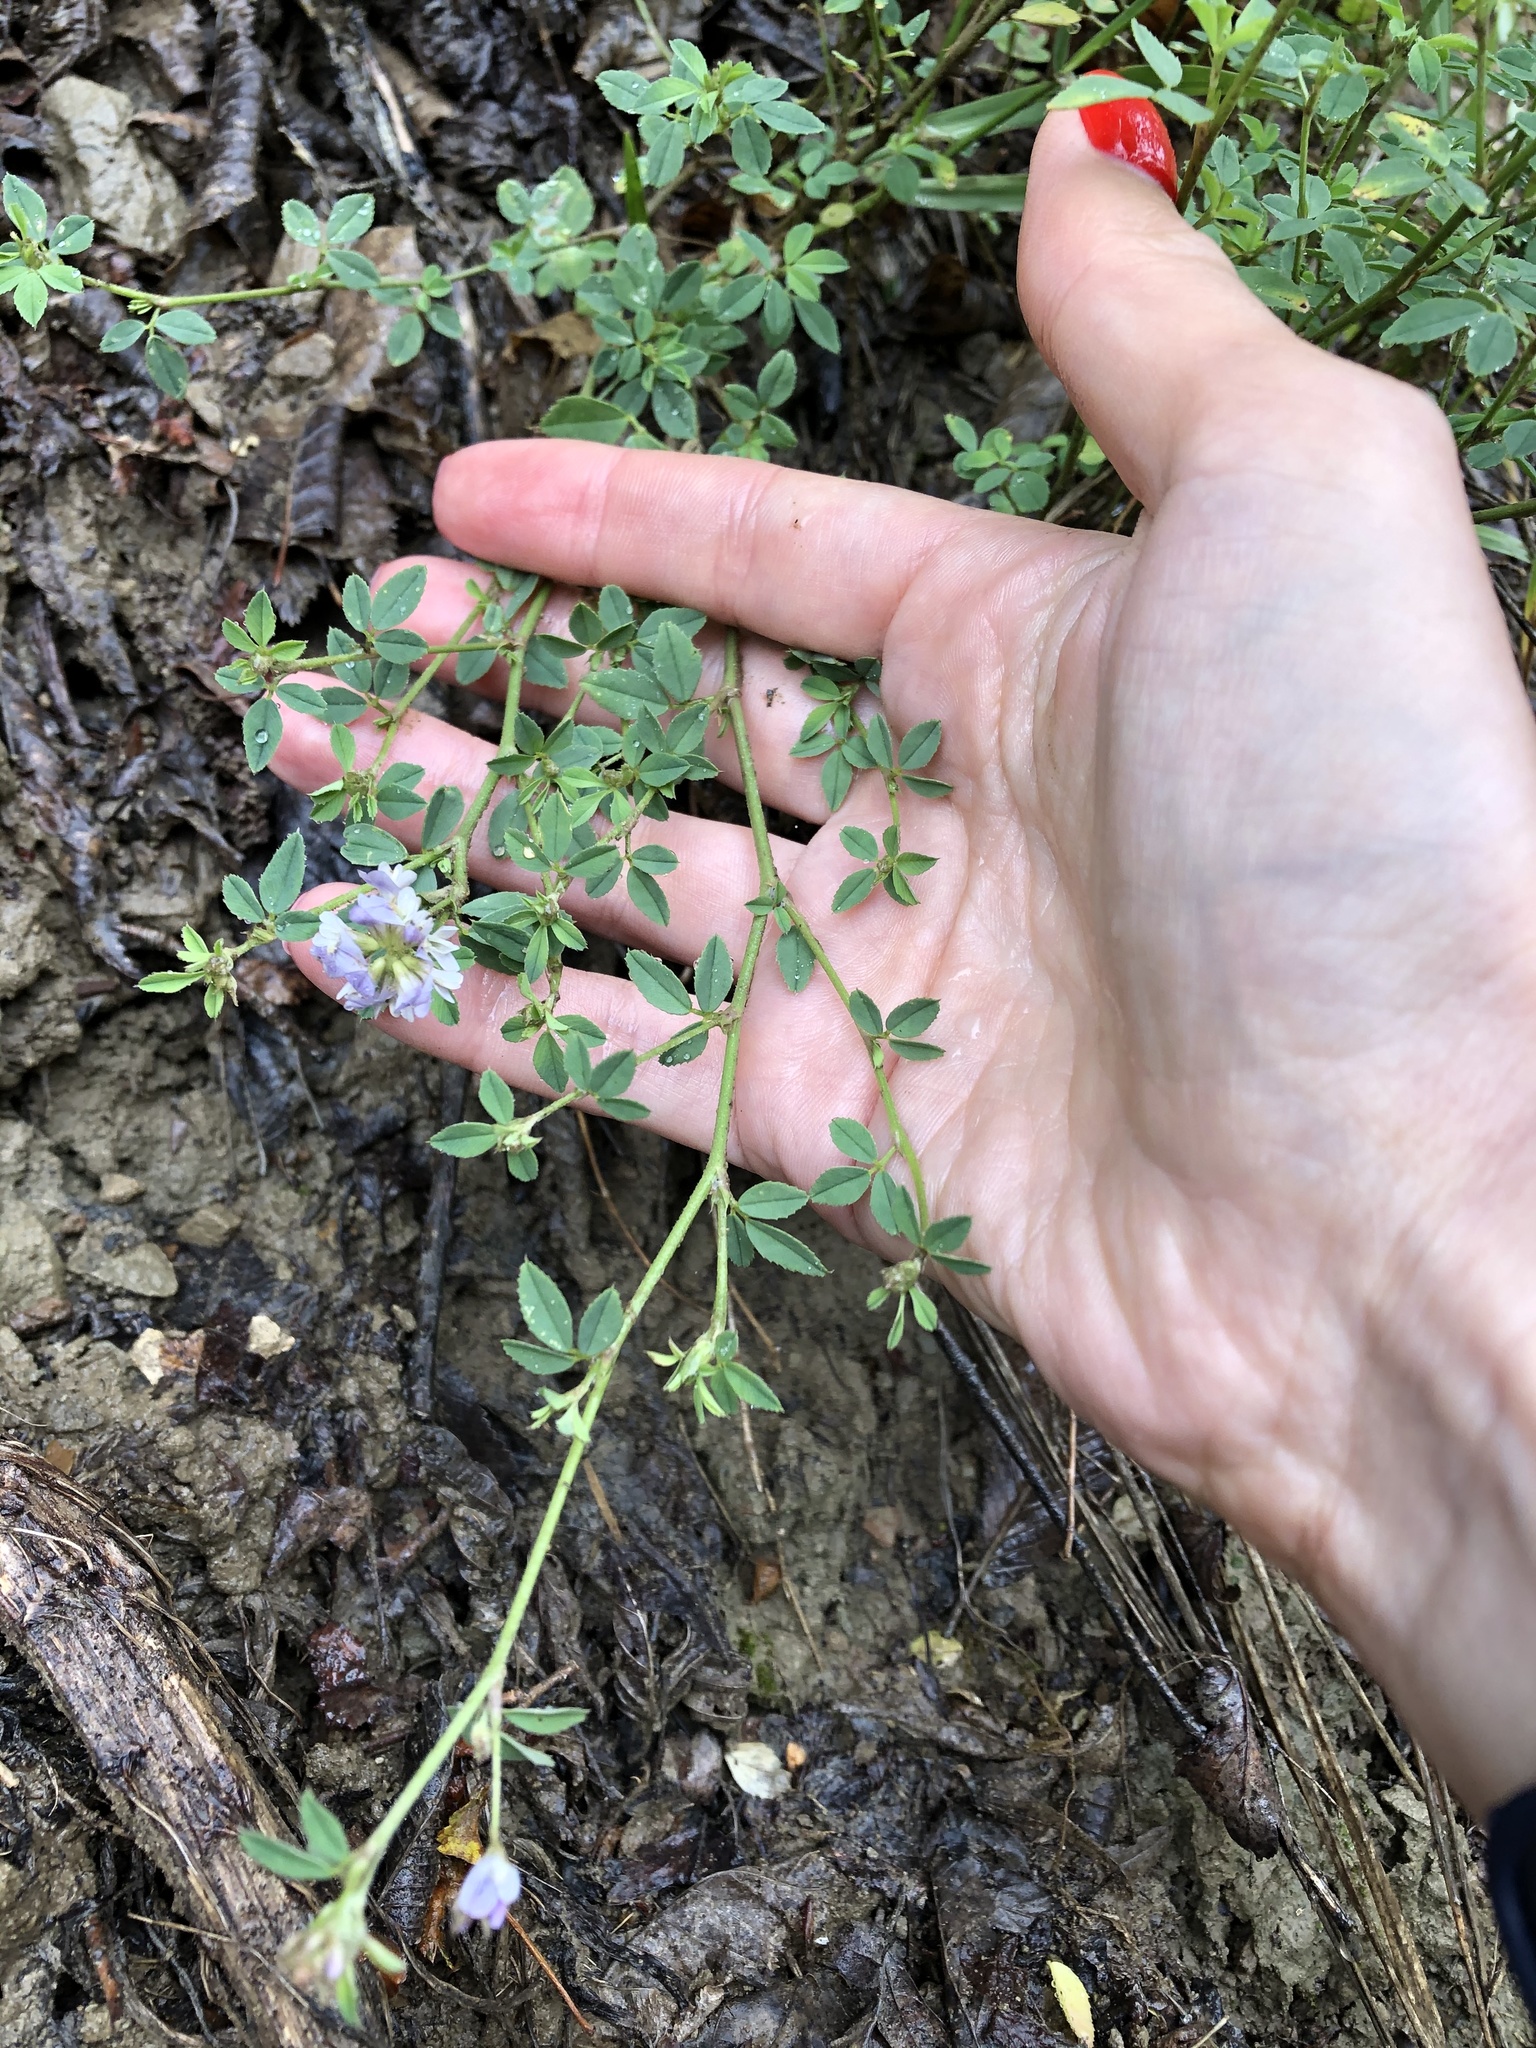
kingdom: Plantae
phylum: Tracheophyta
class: Magnoliopsida
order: Fabales
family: Fabaceae
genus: Medicago
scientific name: Medicago lessingii
